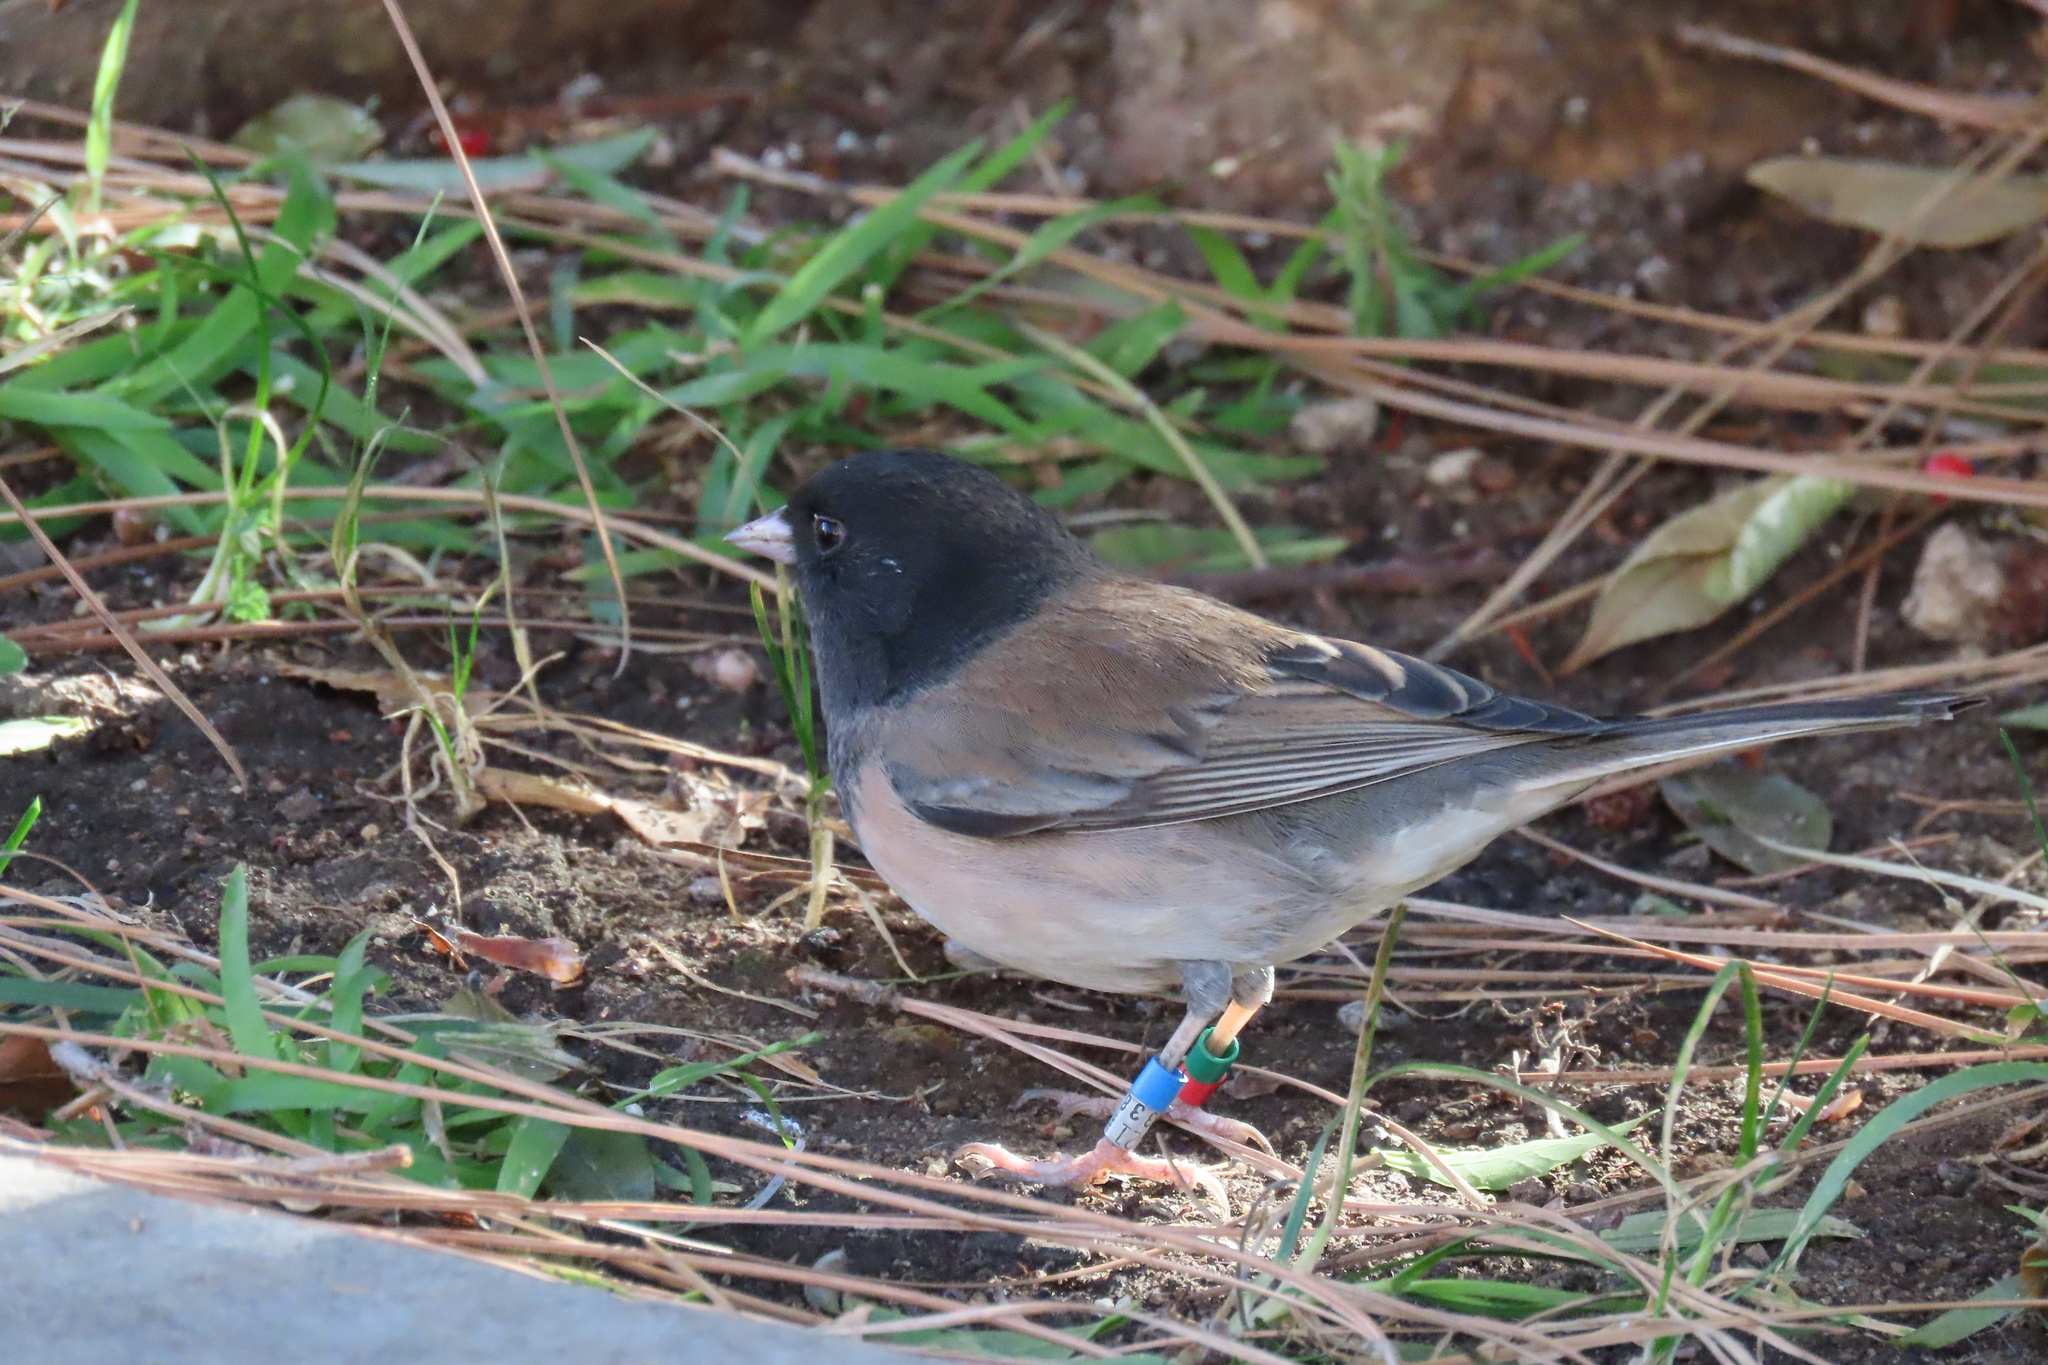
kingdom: Animalia
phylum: Chordata
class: Aves
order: Passeriformes
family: Passerellidae
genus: Junco
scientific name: Junco hyemalis
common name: Dark-eyed junco
